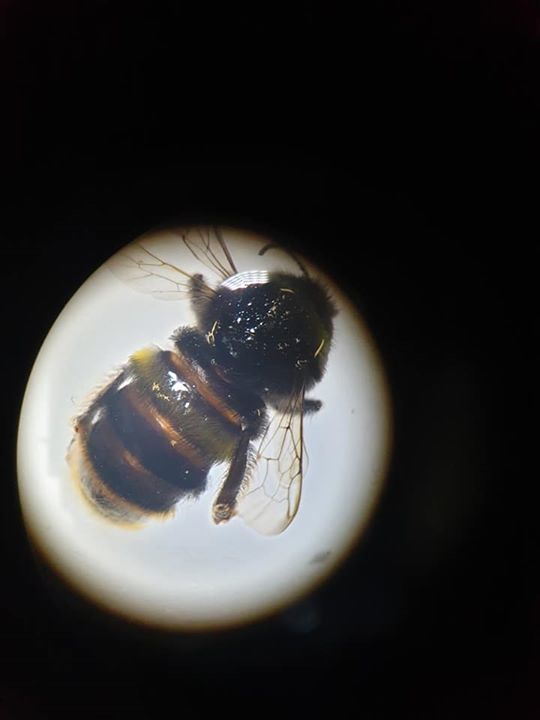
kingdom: Animalia
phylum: Arthropoda
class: Insecta
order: Hymenoptera
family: Apidae
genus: Bombus
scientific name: Bombus terrestris
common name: Buff-tailed bumblebee
